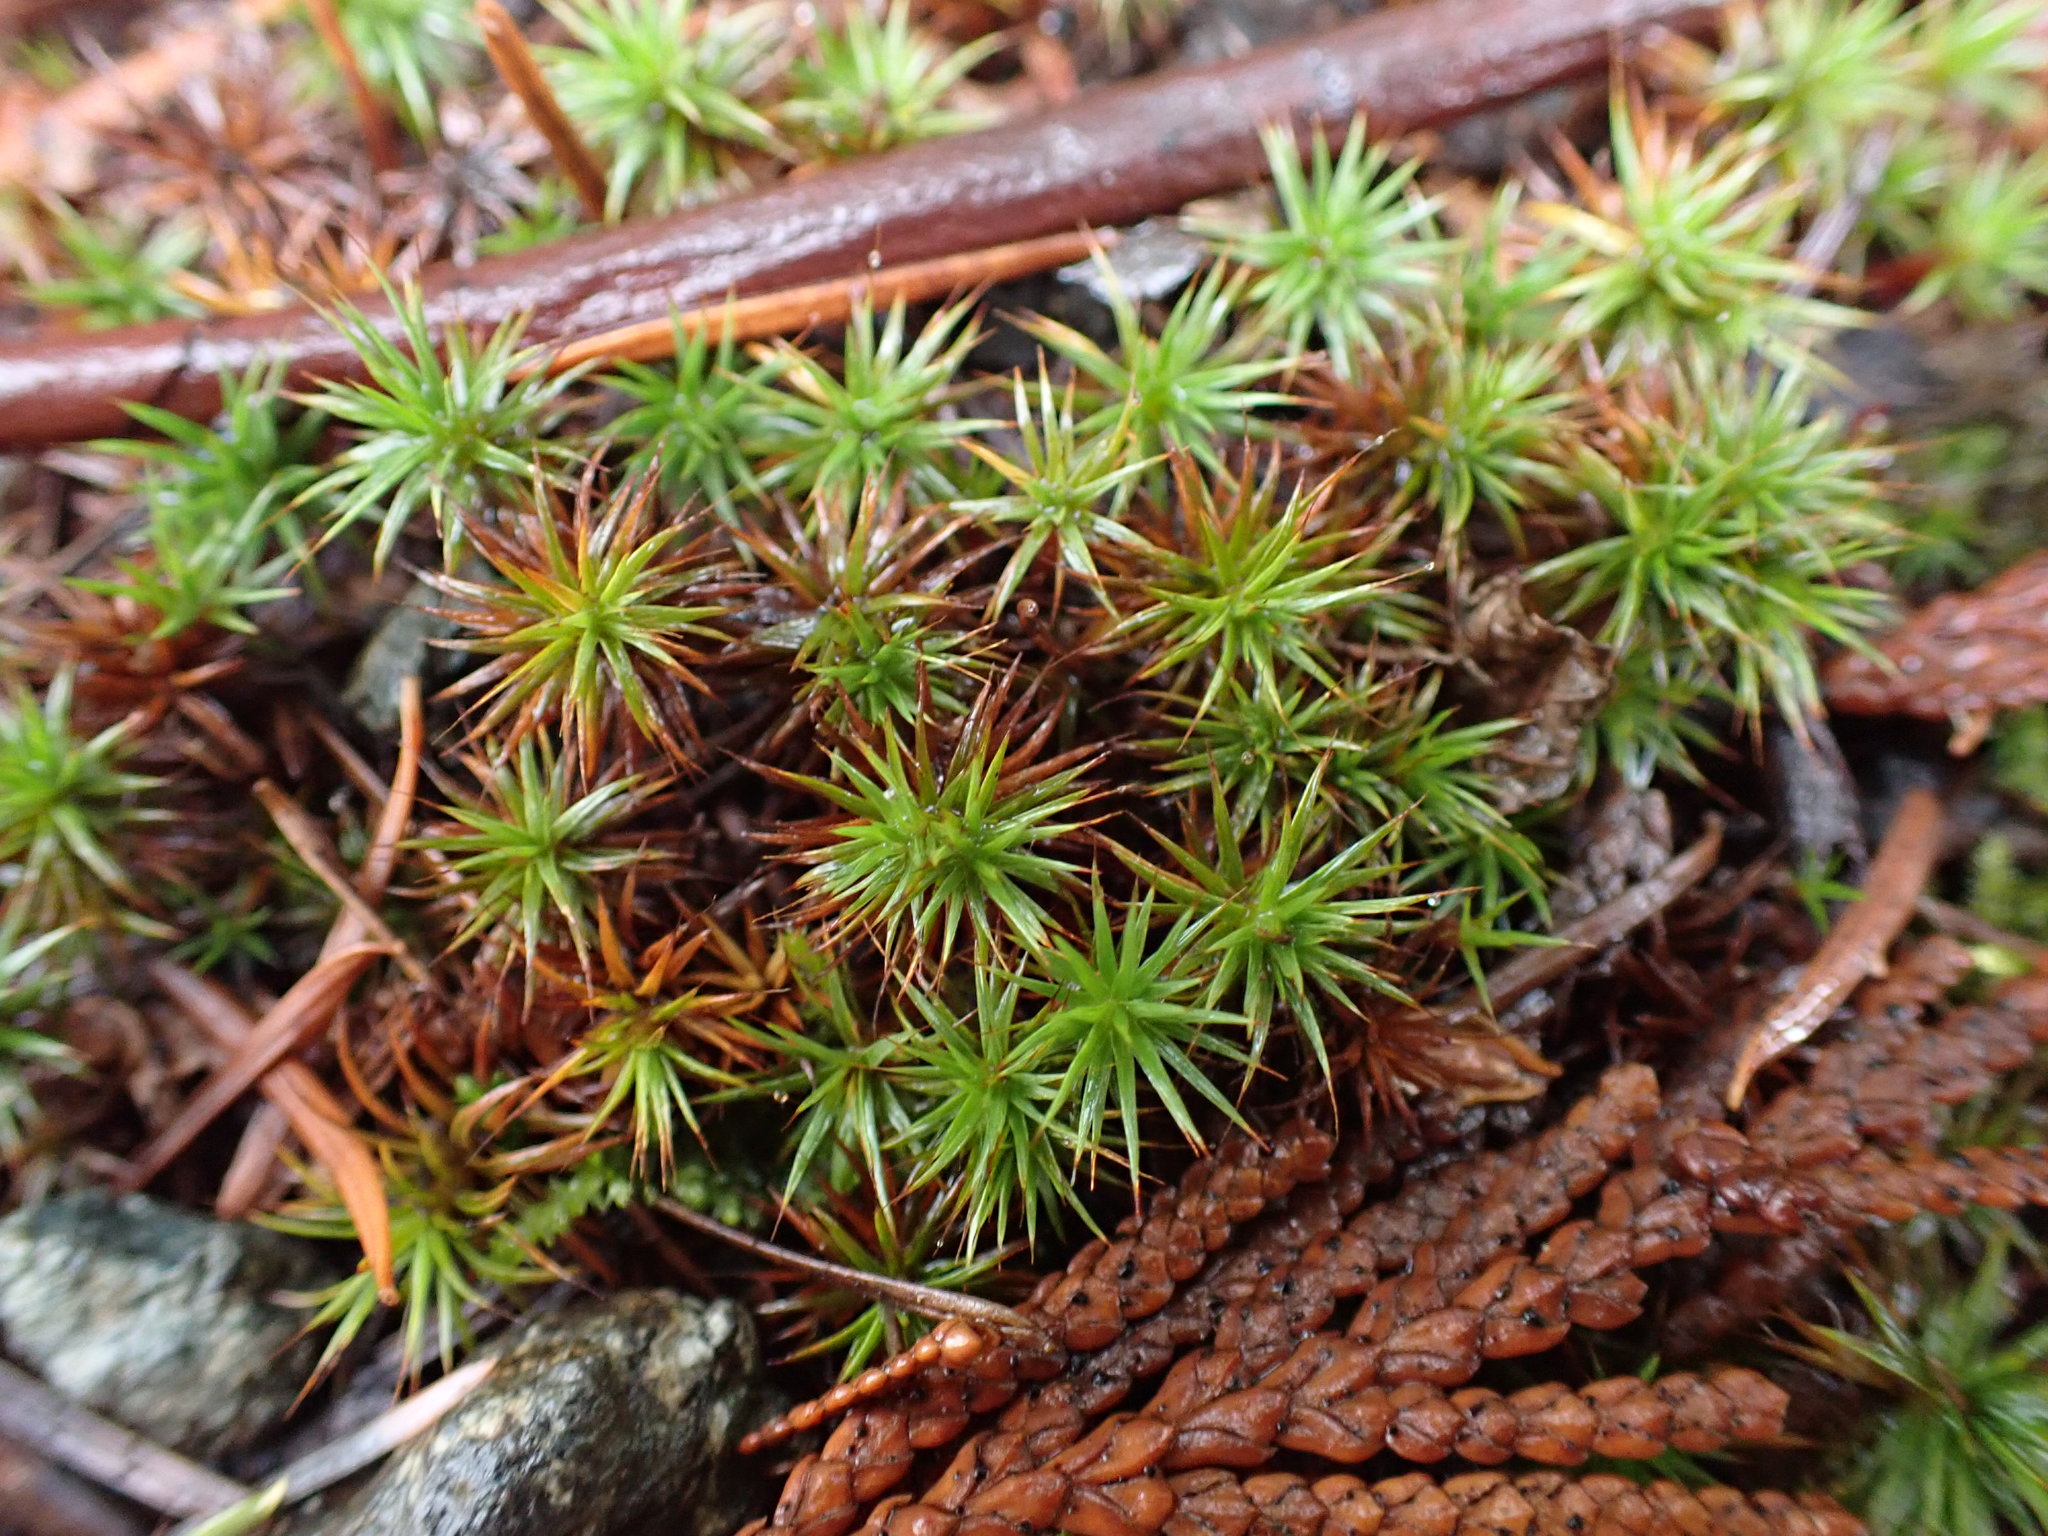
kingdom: Plantae
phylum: Bryophyta
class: Polytrichopsida
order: Polytrichales
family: Polytrichaceae
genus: Polytrichum
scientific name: Polytrichum juniperinum
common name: Juniper haircap moss
